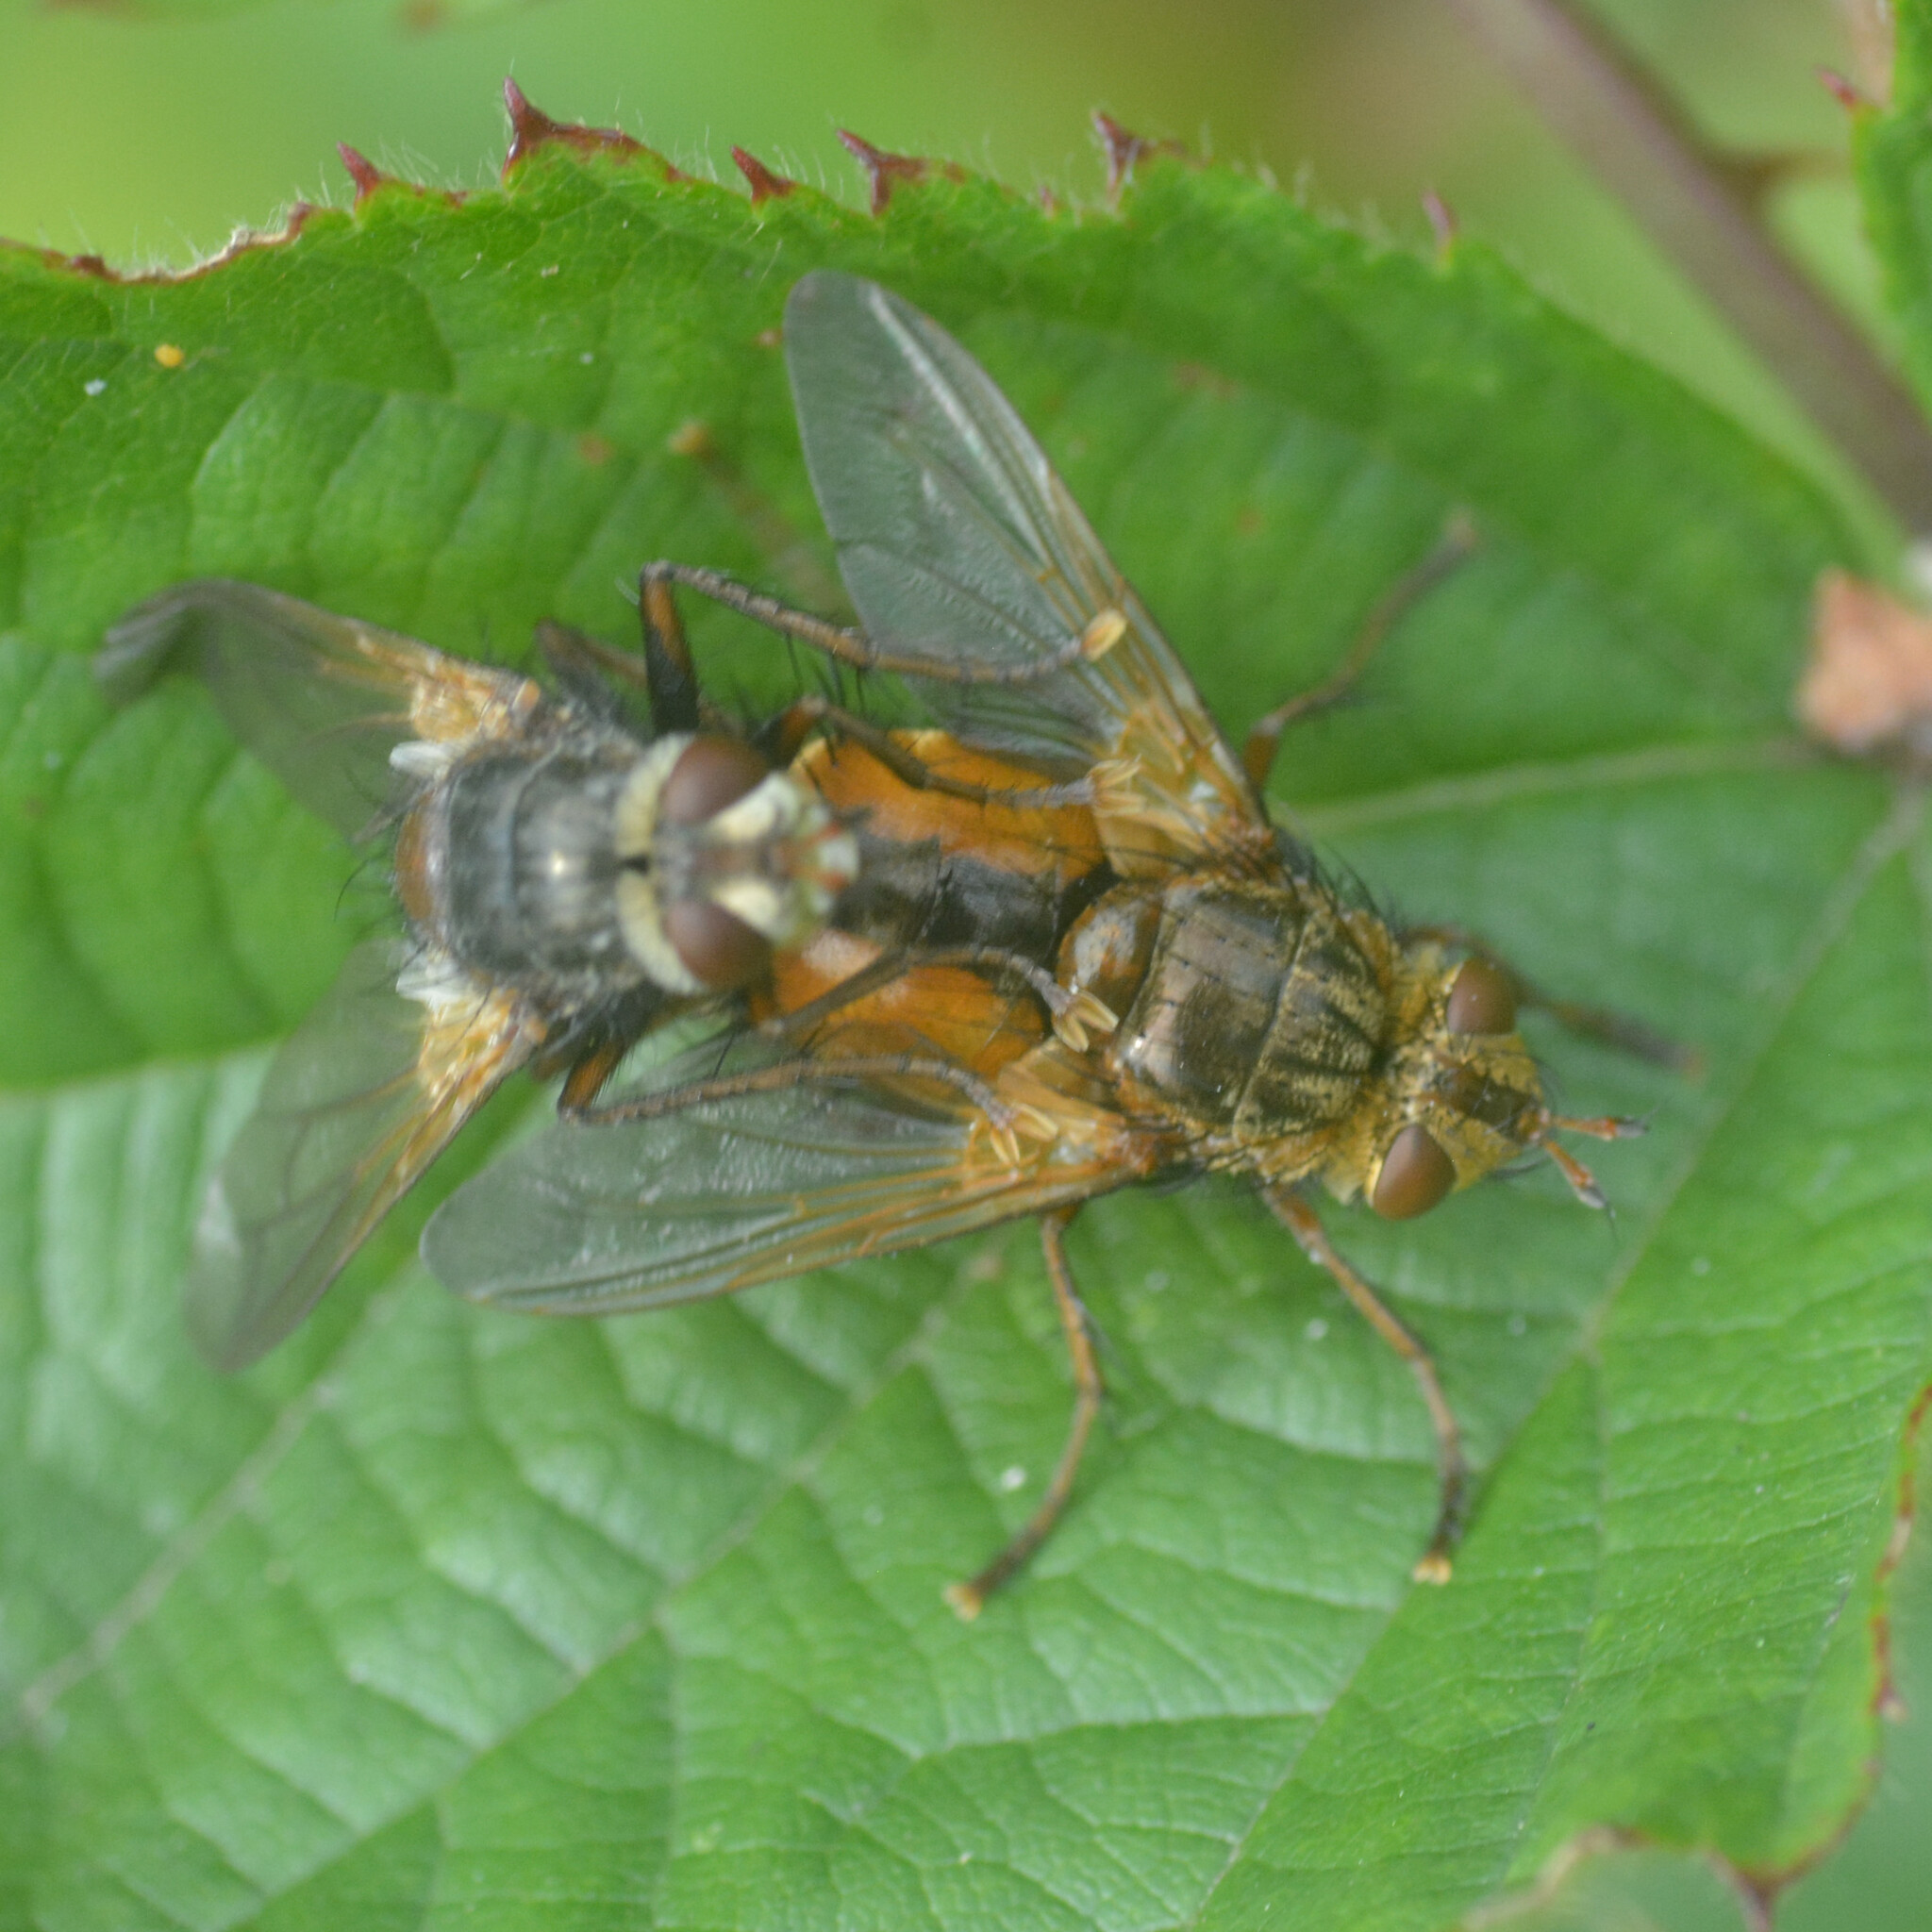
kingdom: Animalia
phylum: Arthropoda
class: Insecta
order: Diptera
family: Tachinidae
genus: Tachina
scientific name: Tachina fera
